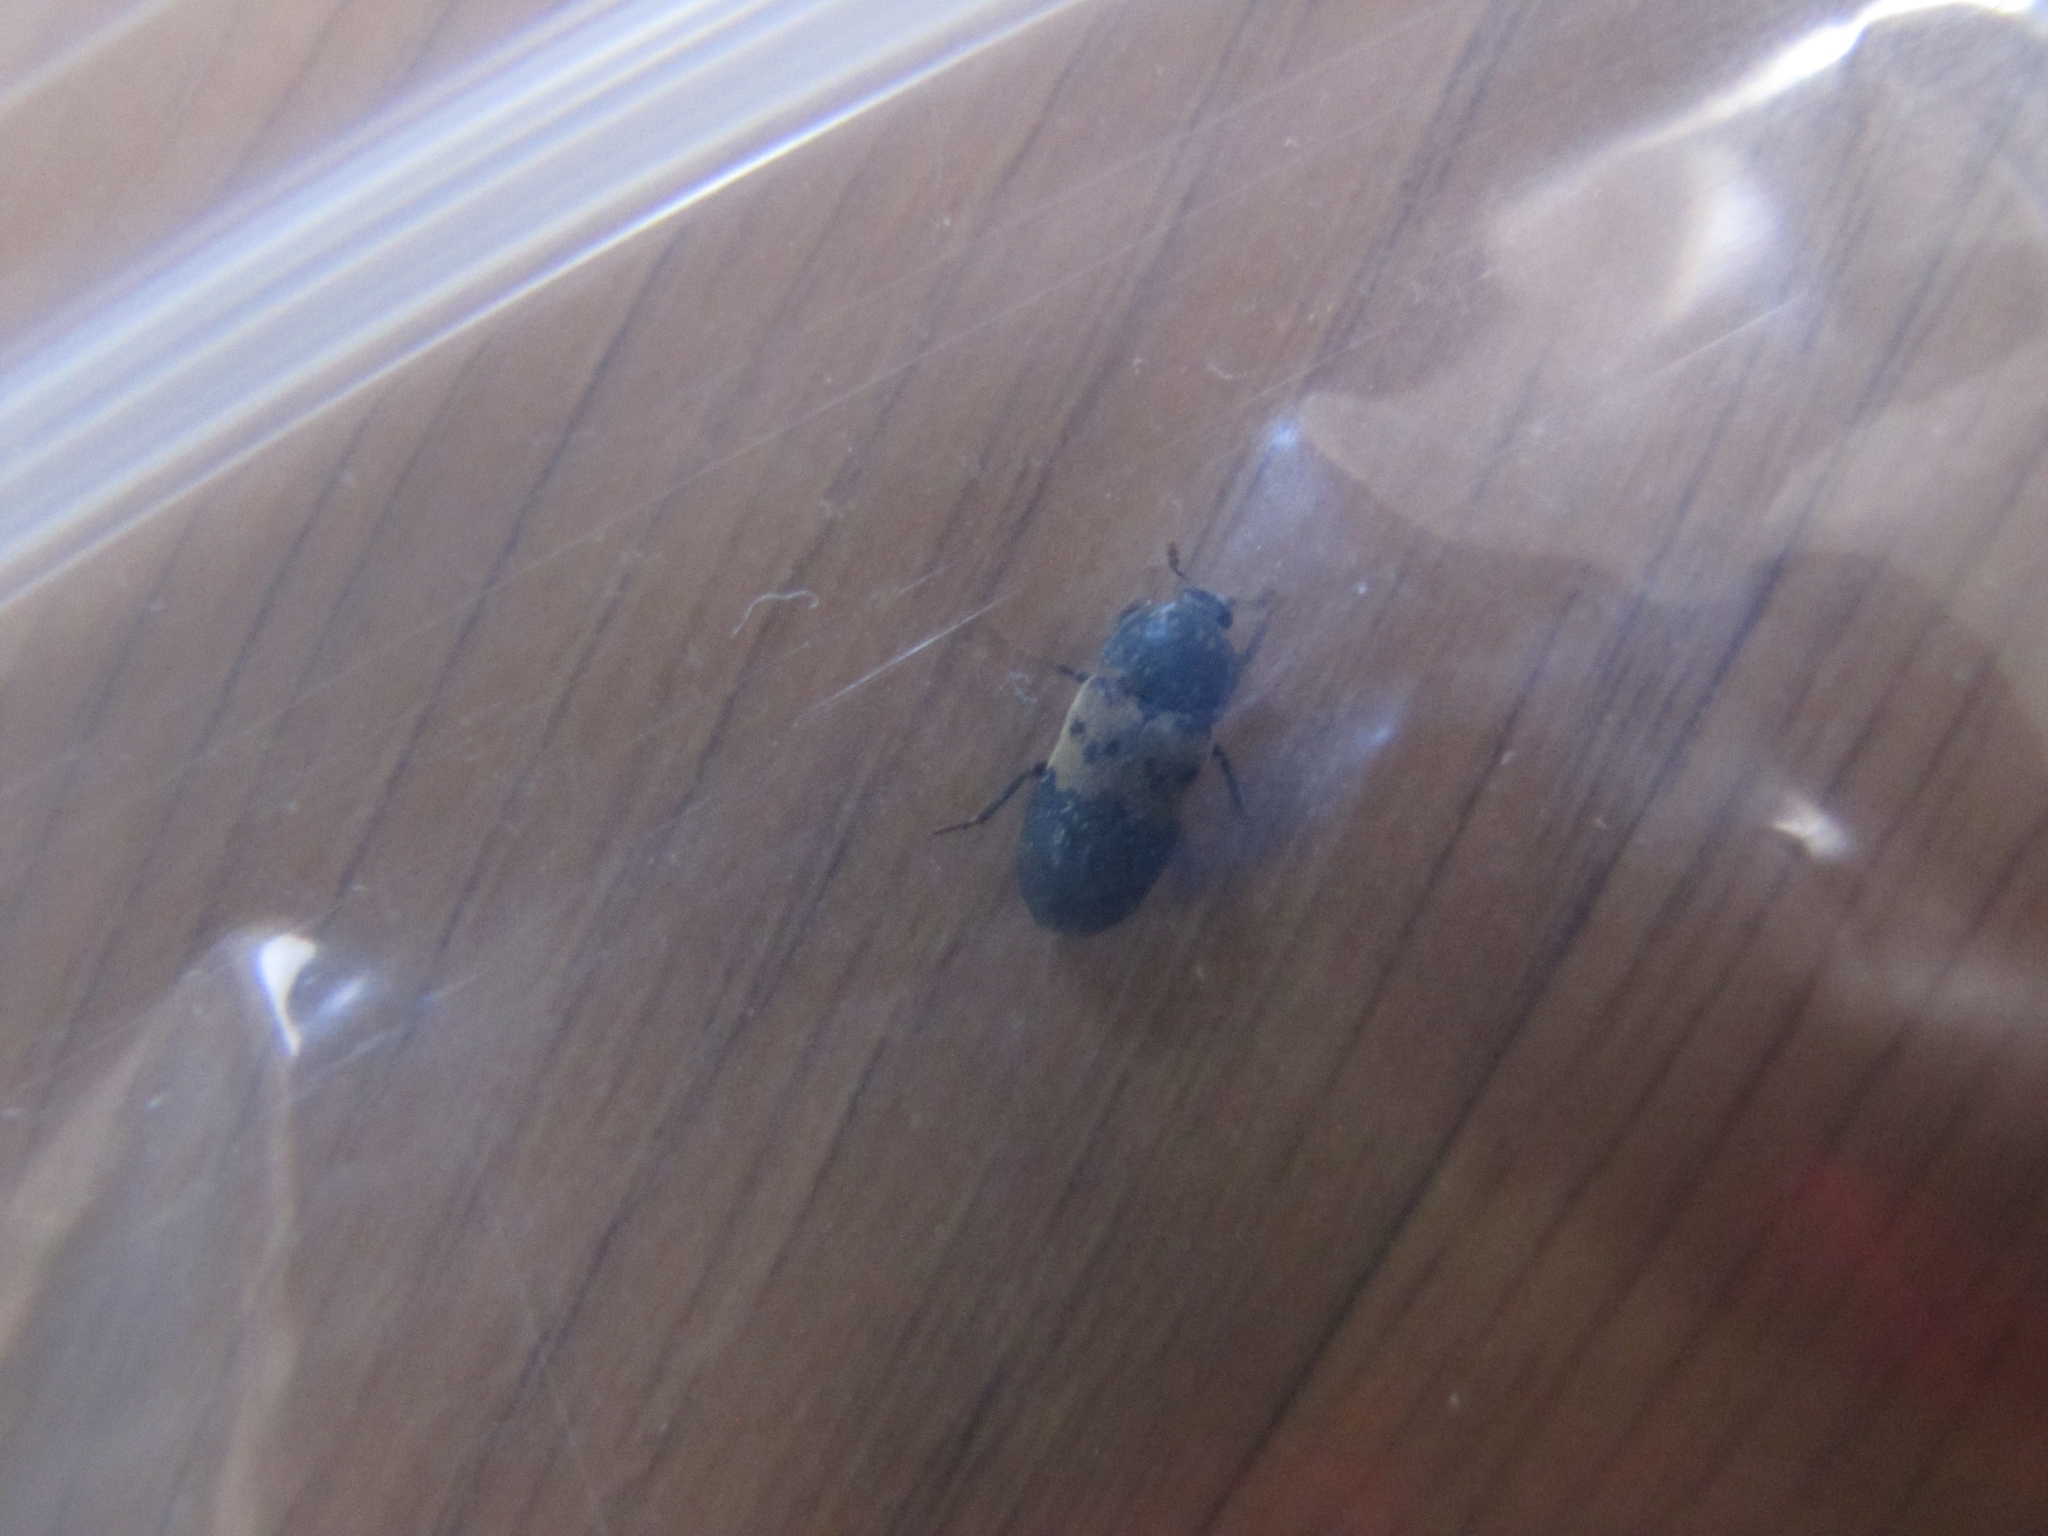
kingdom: Animalia
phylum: Arthropoda
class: Insecta
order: Coleoptera
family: Dermestidae
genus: Dermestes
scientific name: Dermestes lardarius
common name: Larder beetle
